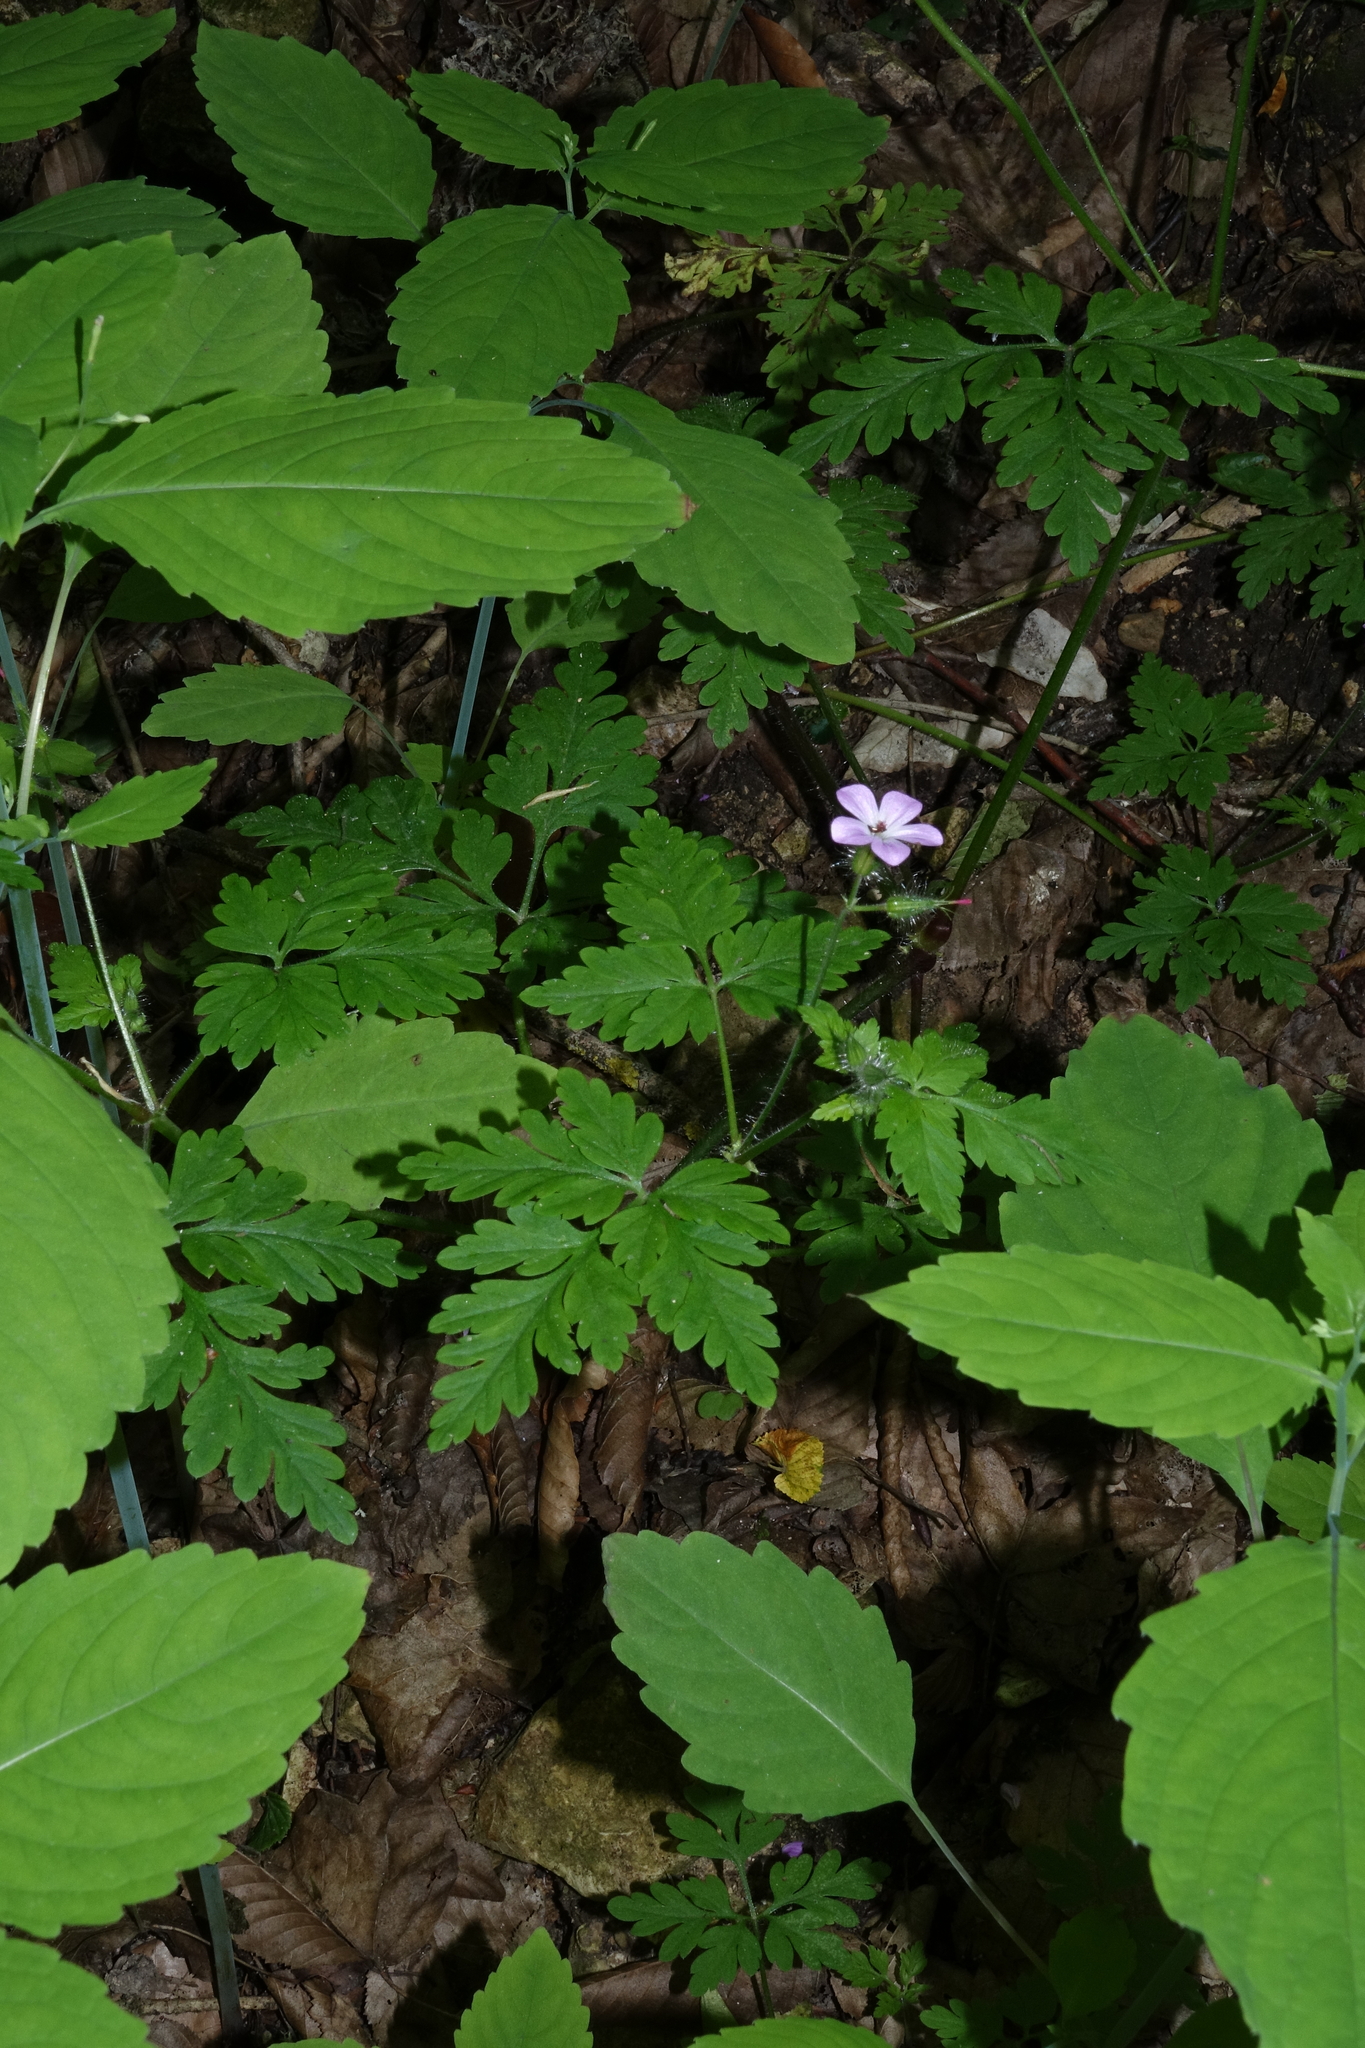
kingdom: Plantae
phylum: Tracheophyta
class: Magnoliopsida
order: Geraniales
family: Geraniaceae
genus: Geranium
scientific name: Geranium robertianum
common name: Herb-robert
